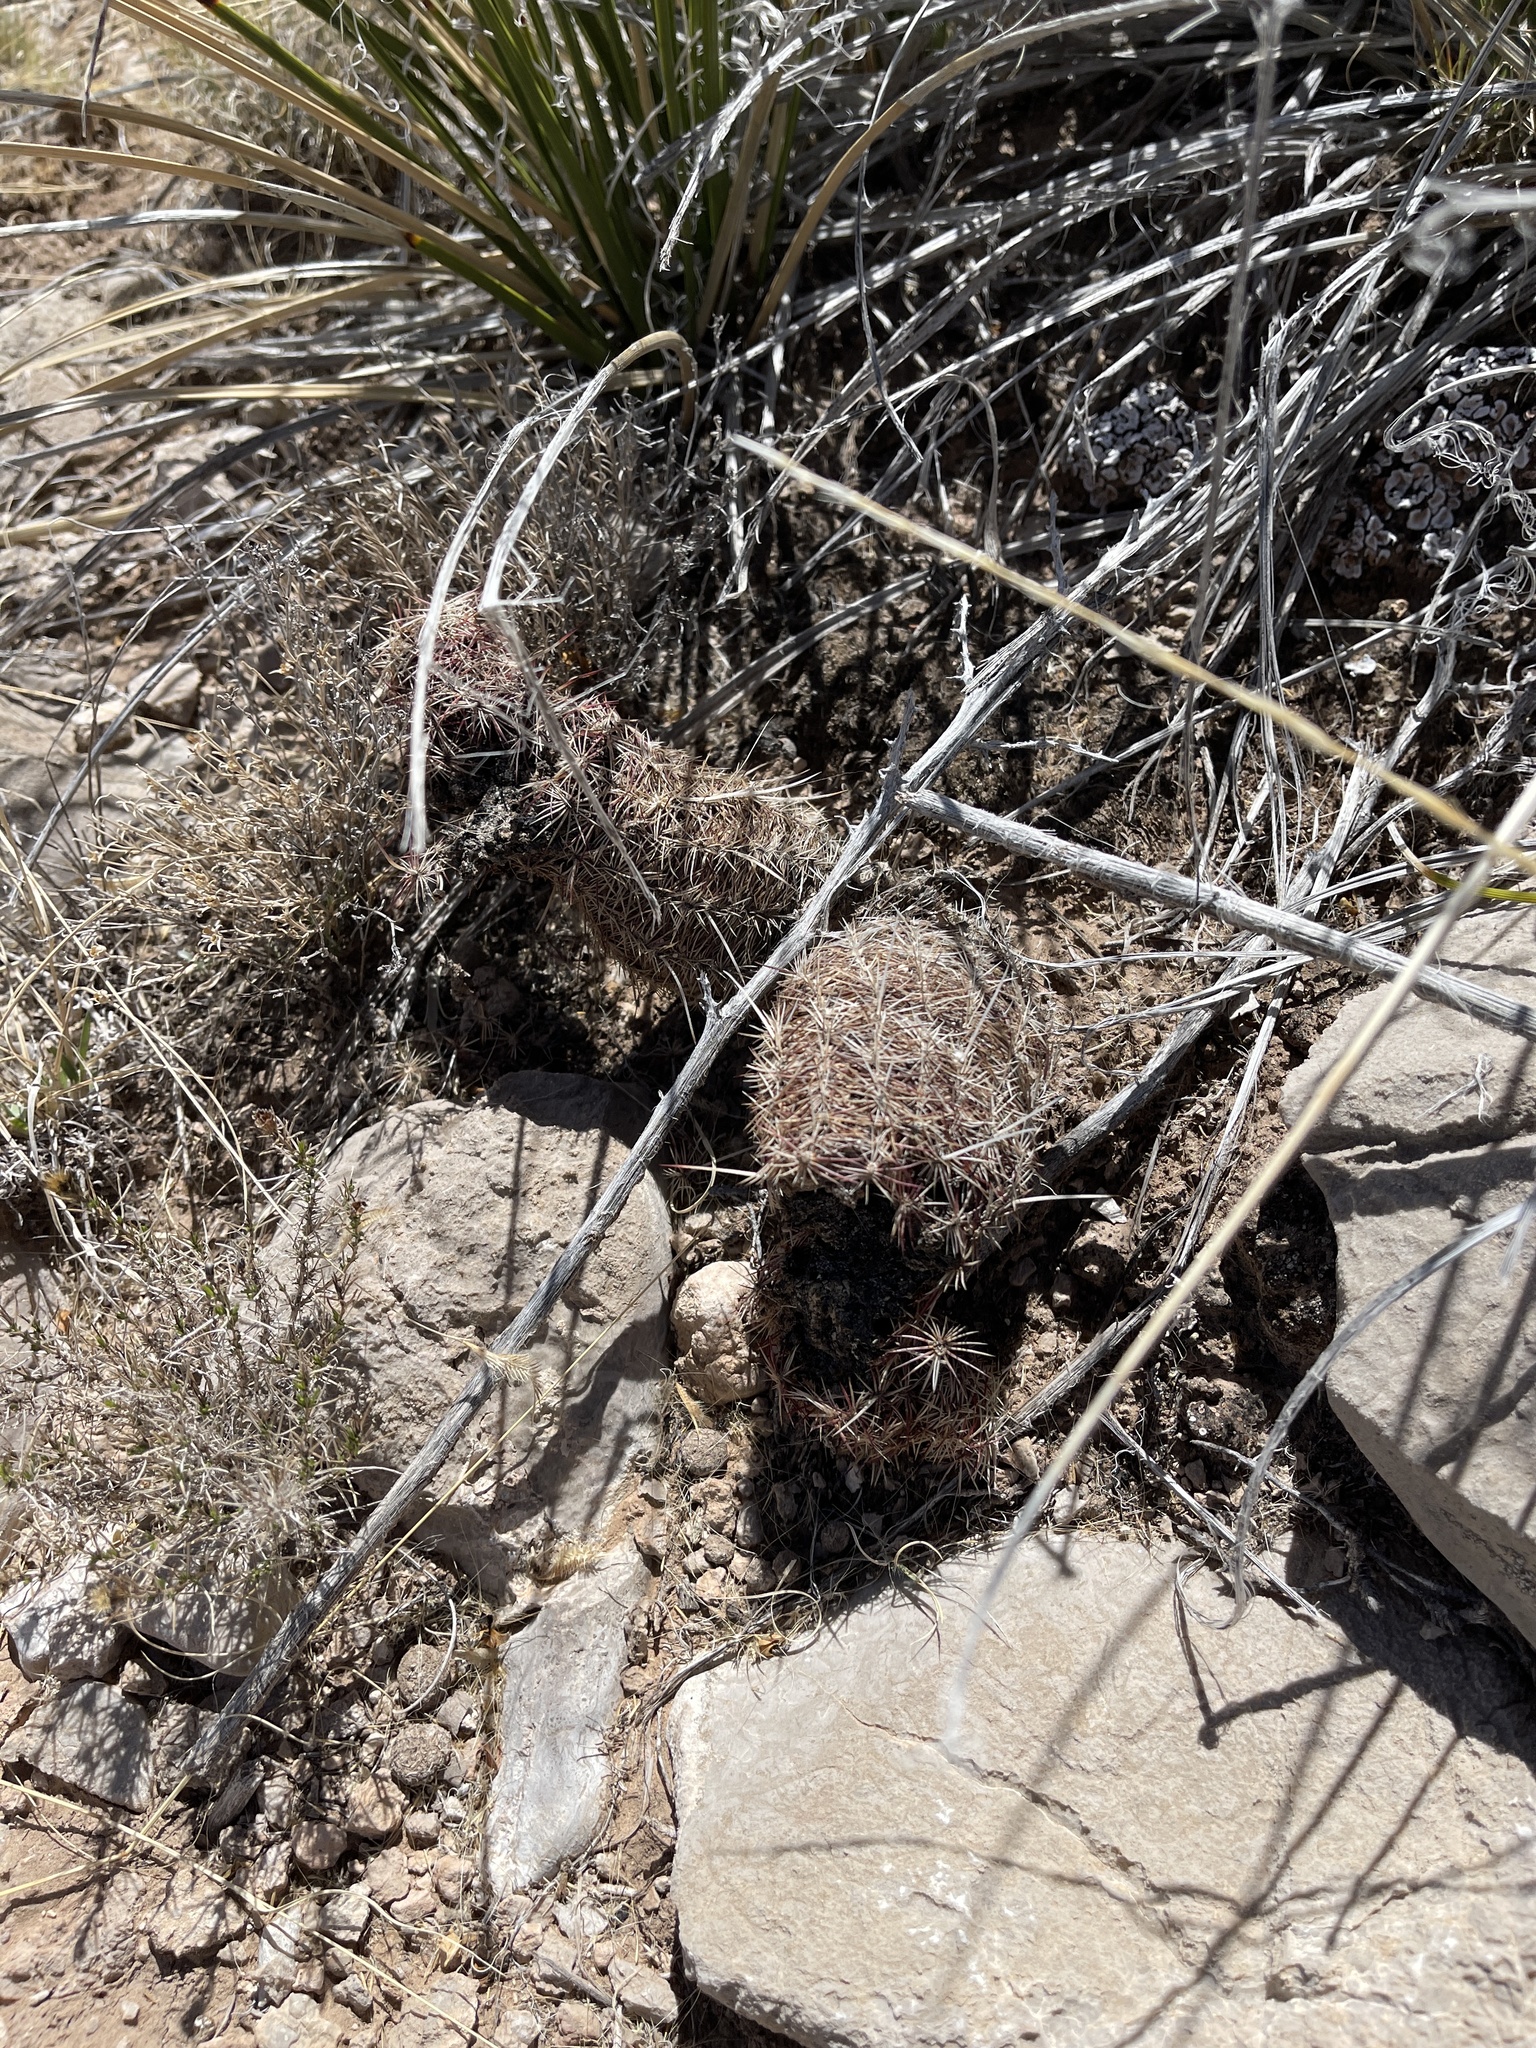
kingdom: Plantae
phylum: Tracheophyta
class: Magnoliopsida
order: Caryophyllales
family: Cactaceae
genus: Echinocereus
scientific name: Echinocereus viridiflorus
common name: Nylon hedgehog cactus
